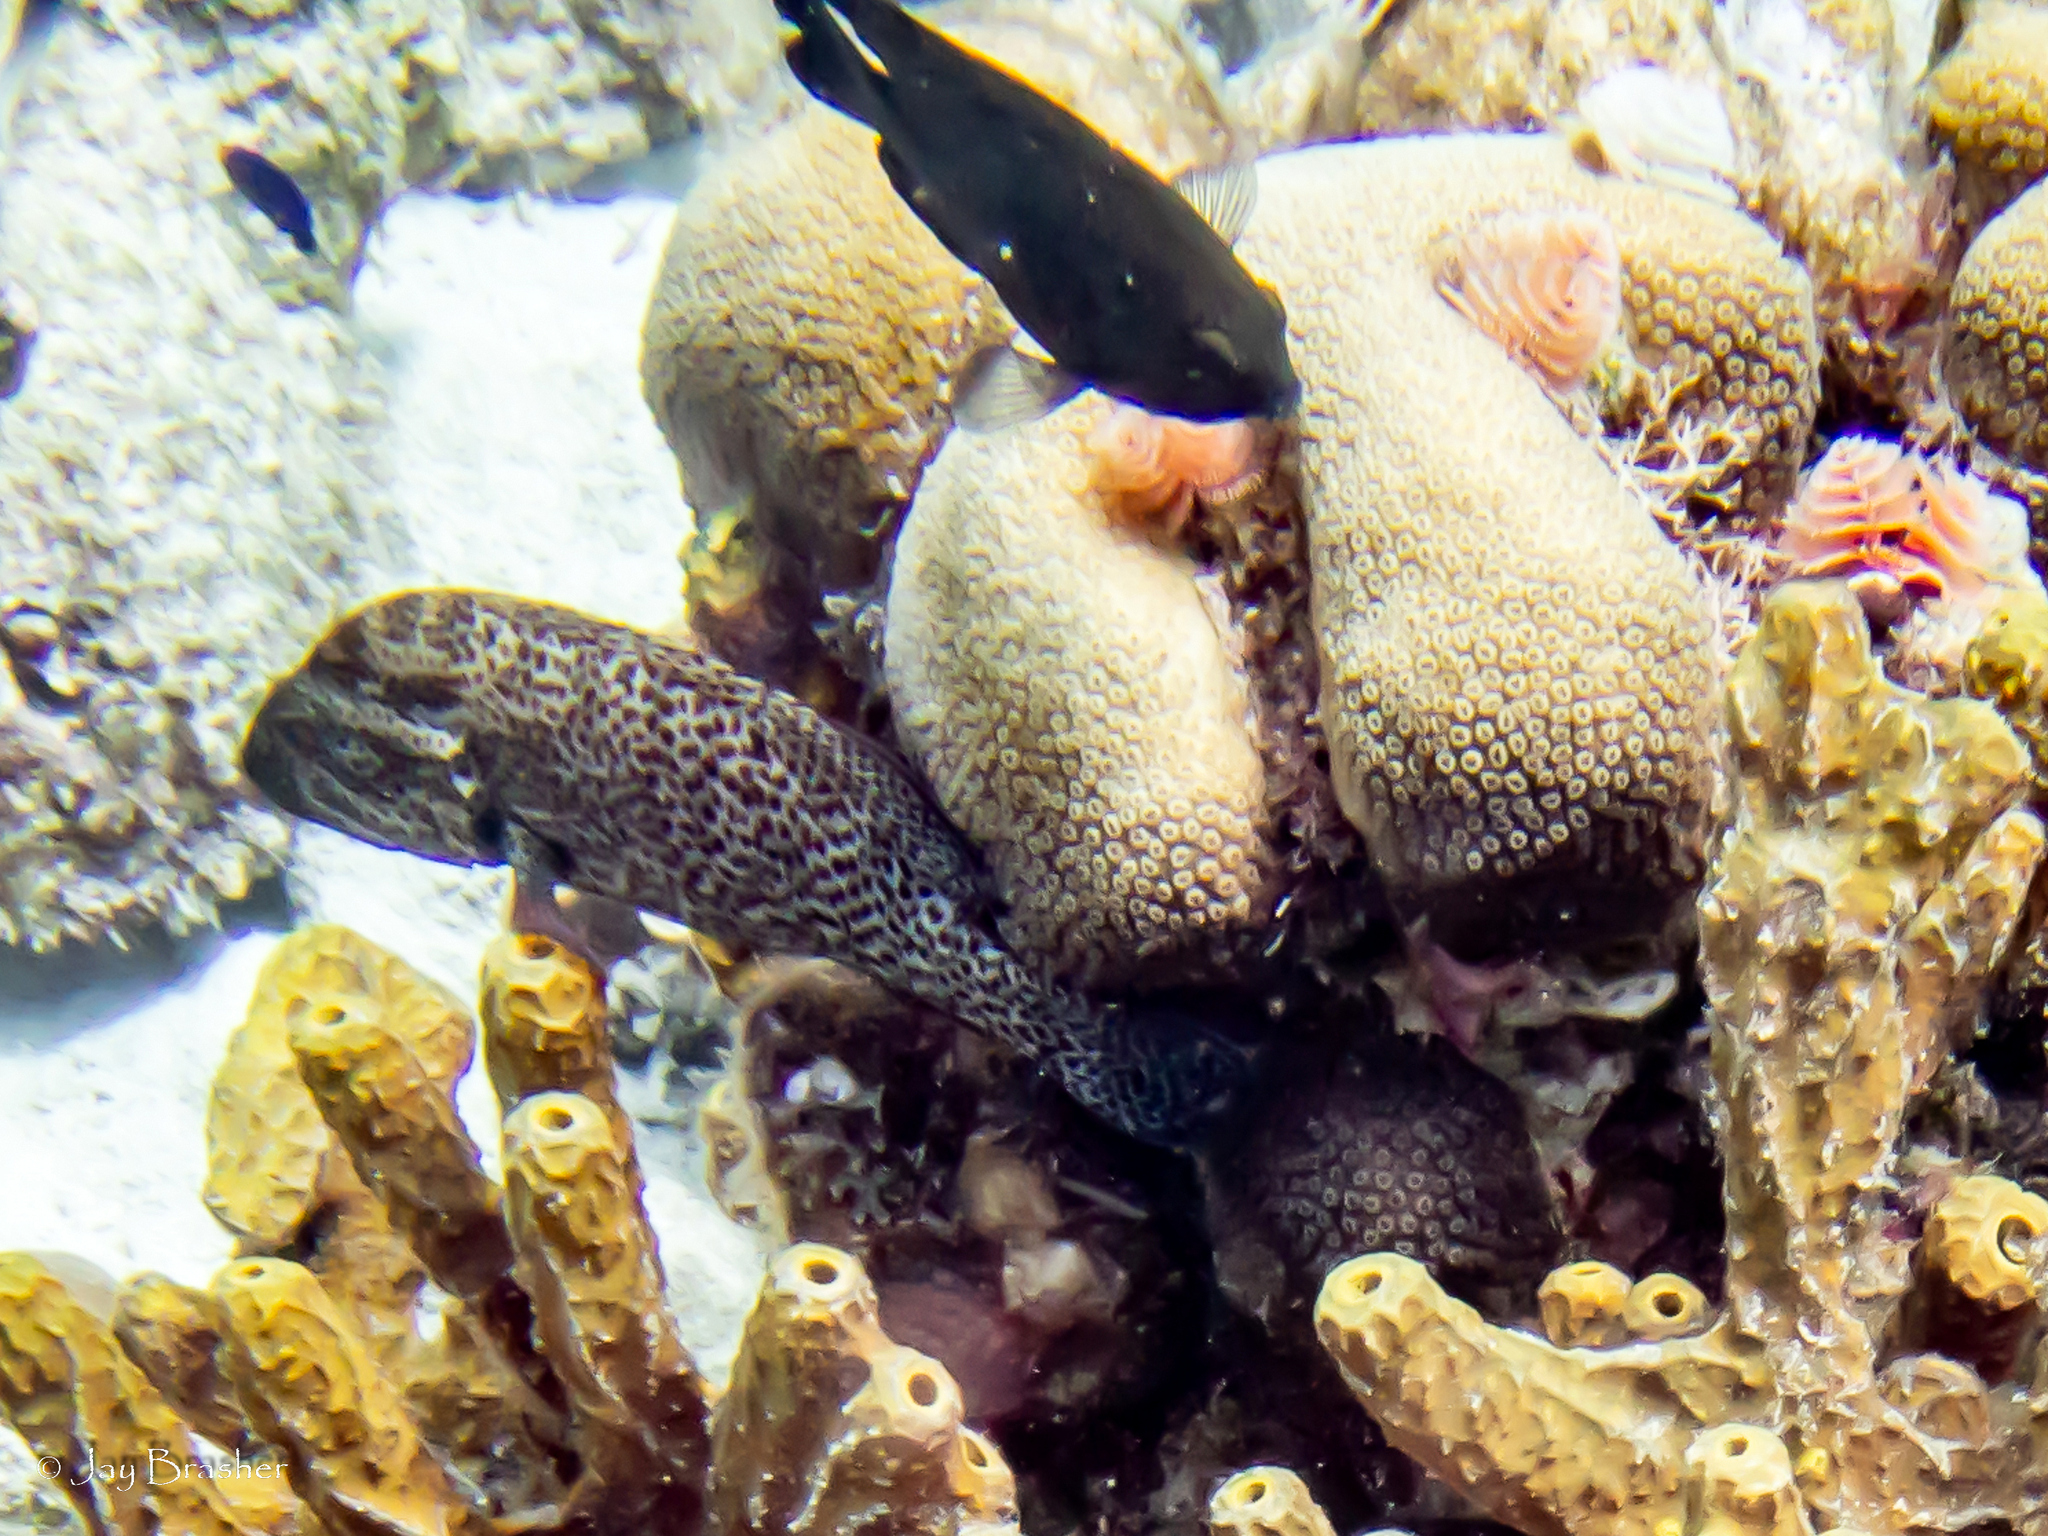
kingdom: Animalia
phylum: Annelida
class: Polychaeta
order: Sabellida
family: Serpulidae
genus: Spirobranchus
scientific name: Spirobranchus giganteus
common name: Christmas tree worm
